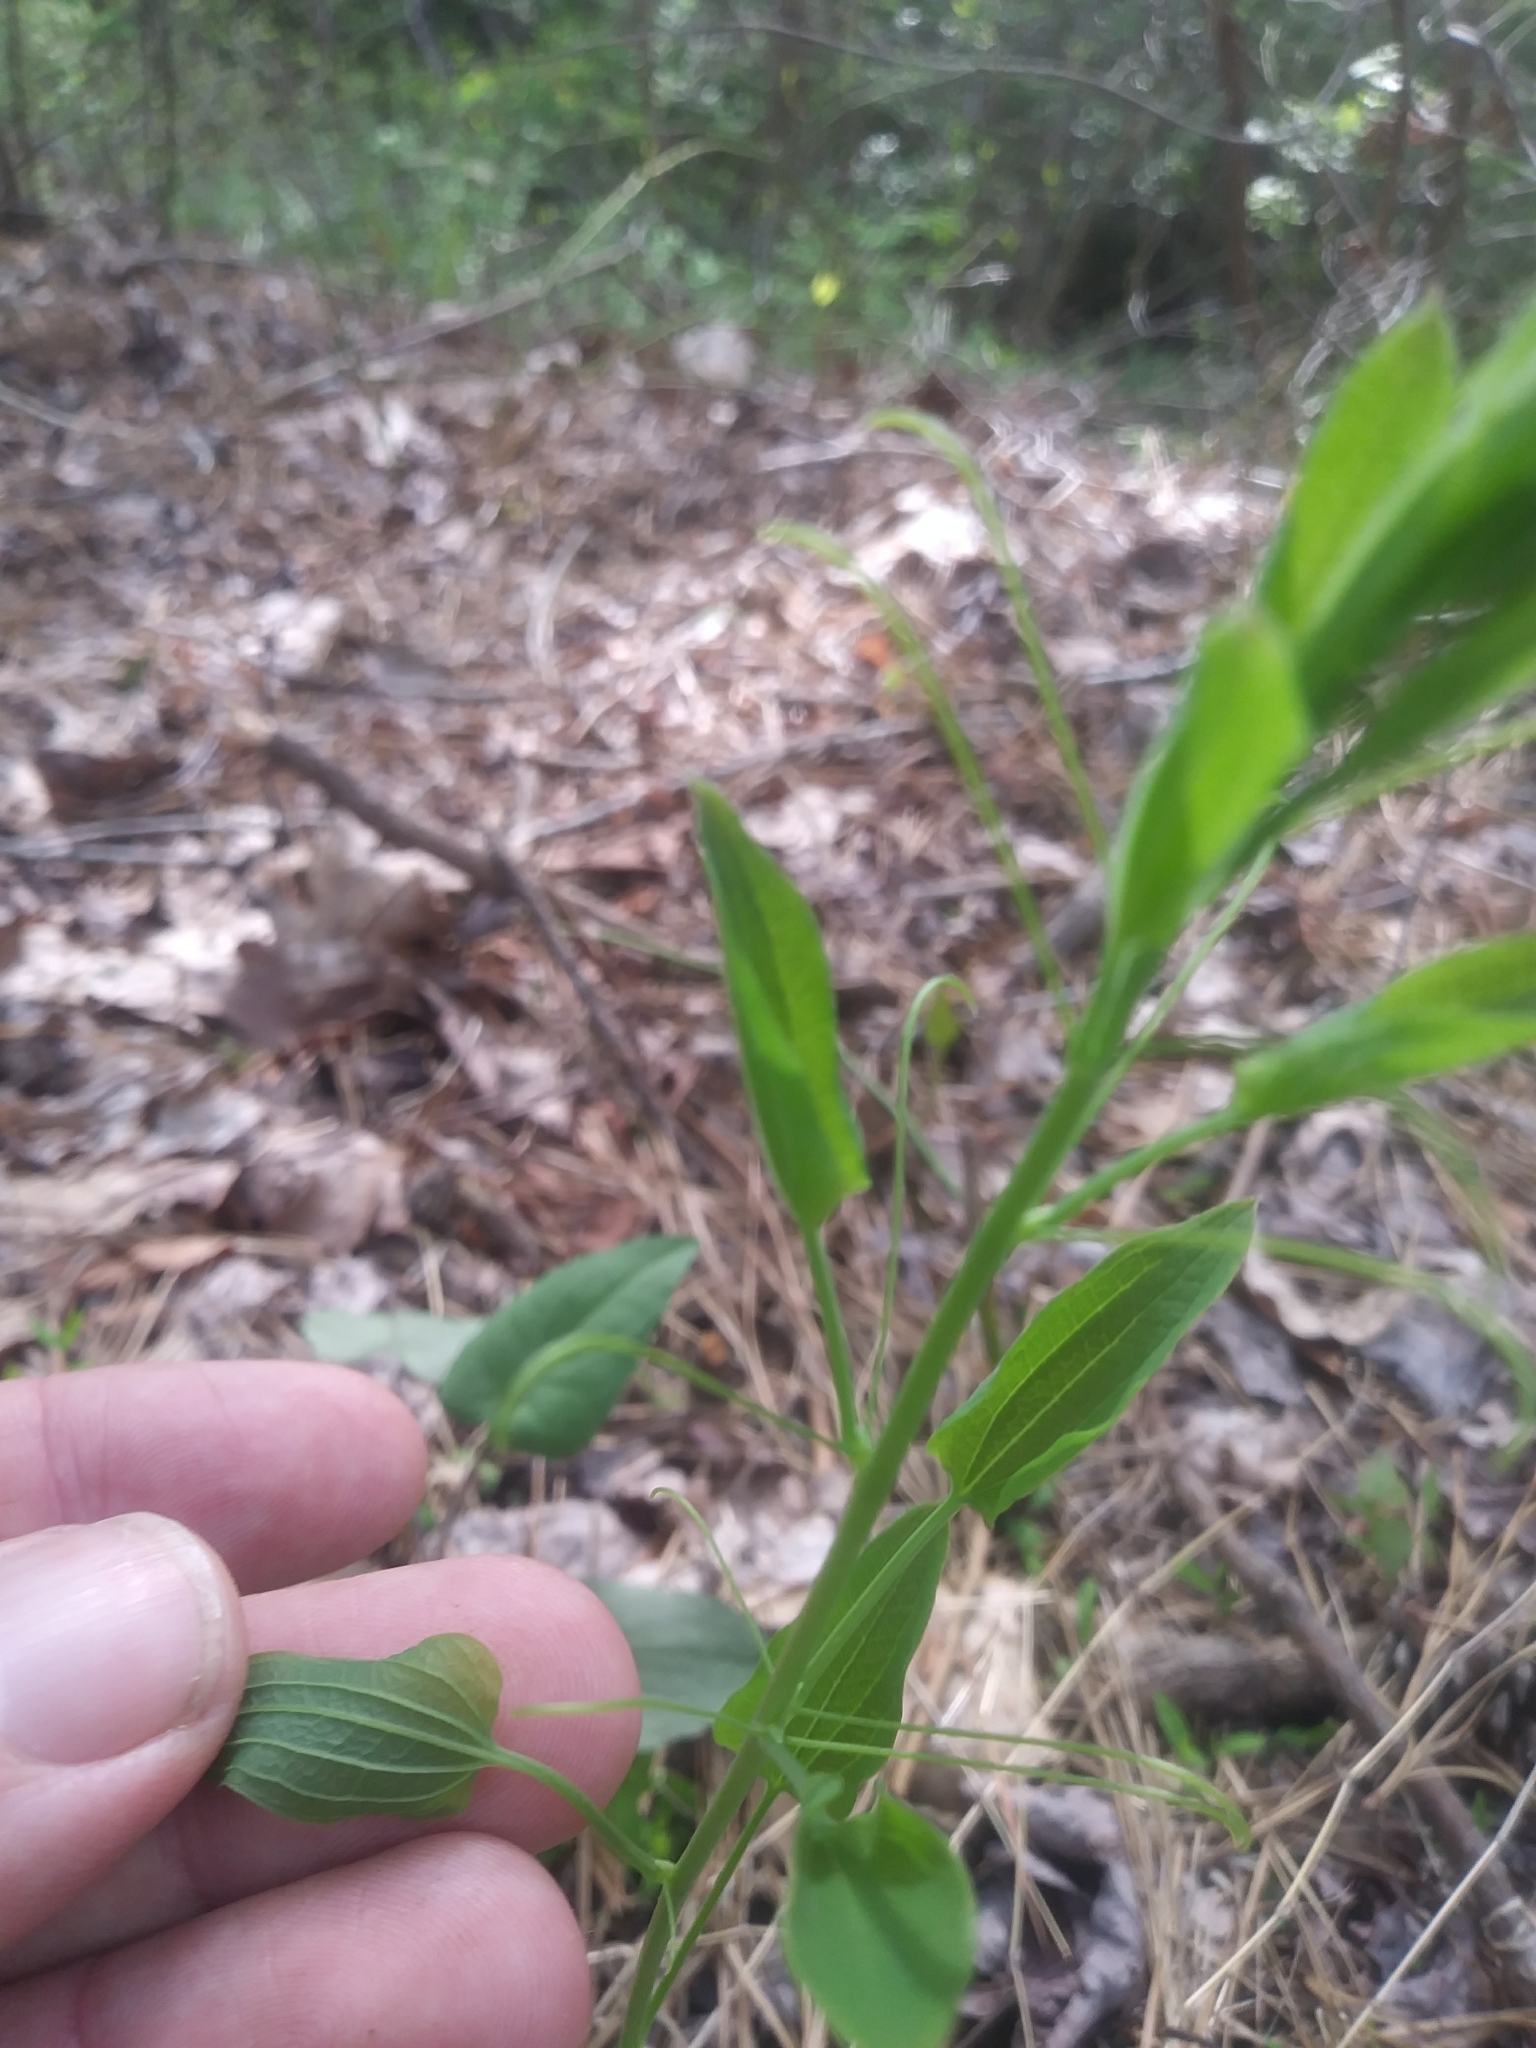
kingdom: Plantae
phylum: Tracheophyta
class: Liliopsida
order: Liliales
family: Smilacaceae
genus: Smilax
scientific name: Smilax herbacea
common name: Jacob's-ladder
